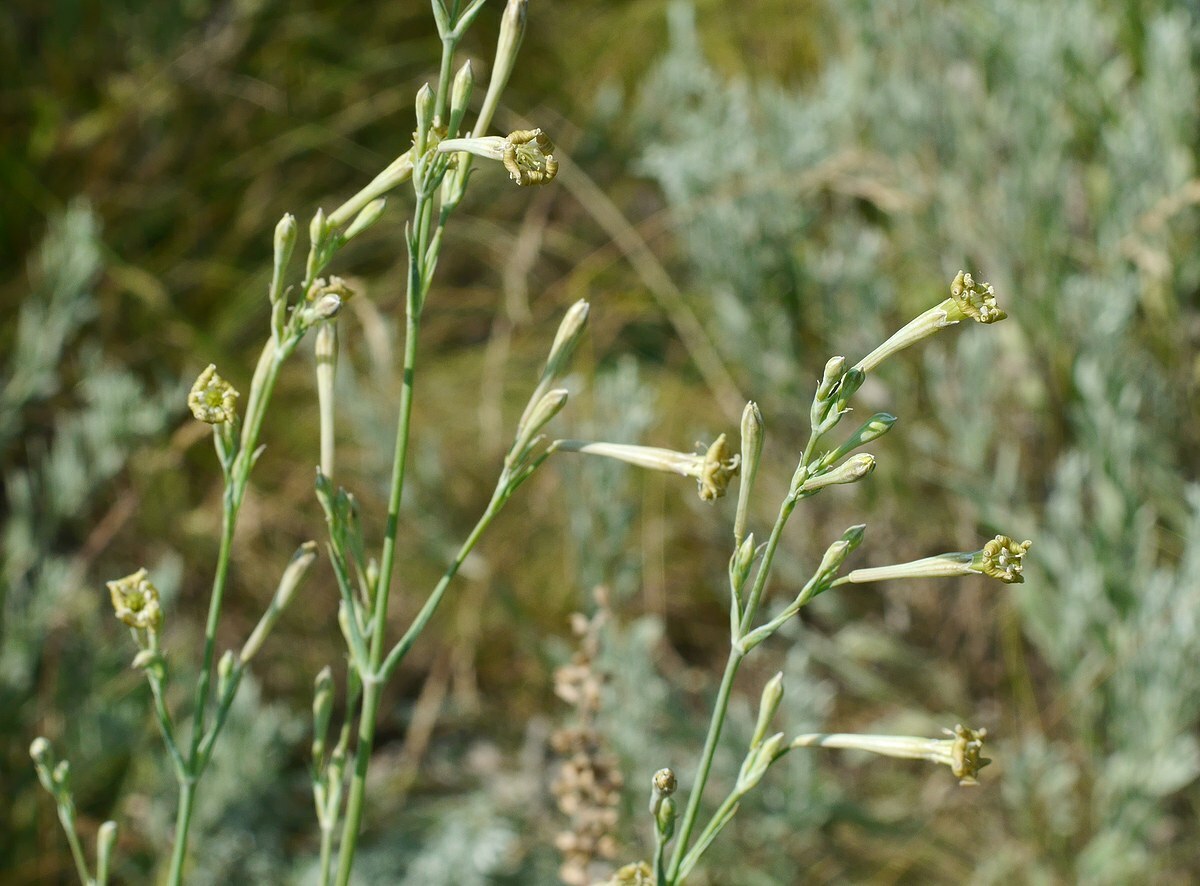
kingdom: Plantae
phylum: Tracheophyta
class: Magnoliopsida
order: Caryophyllales
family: Caryophyllaceae
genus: Silene
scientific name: Silene bupleuroides
